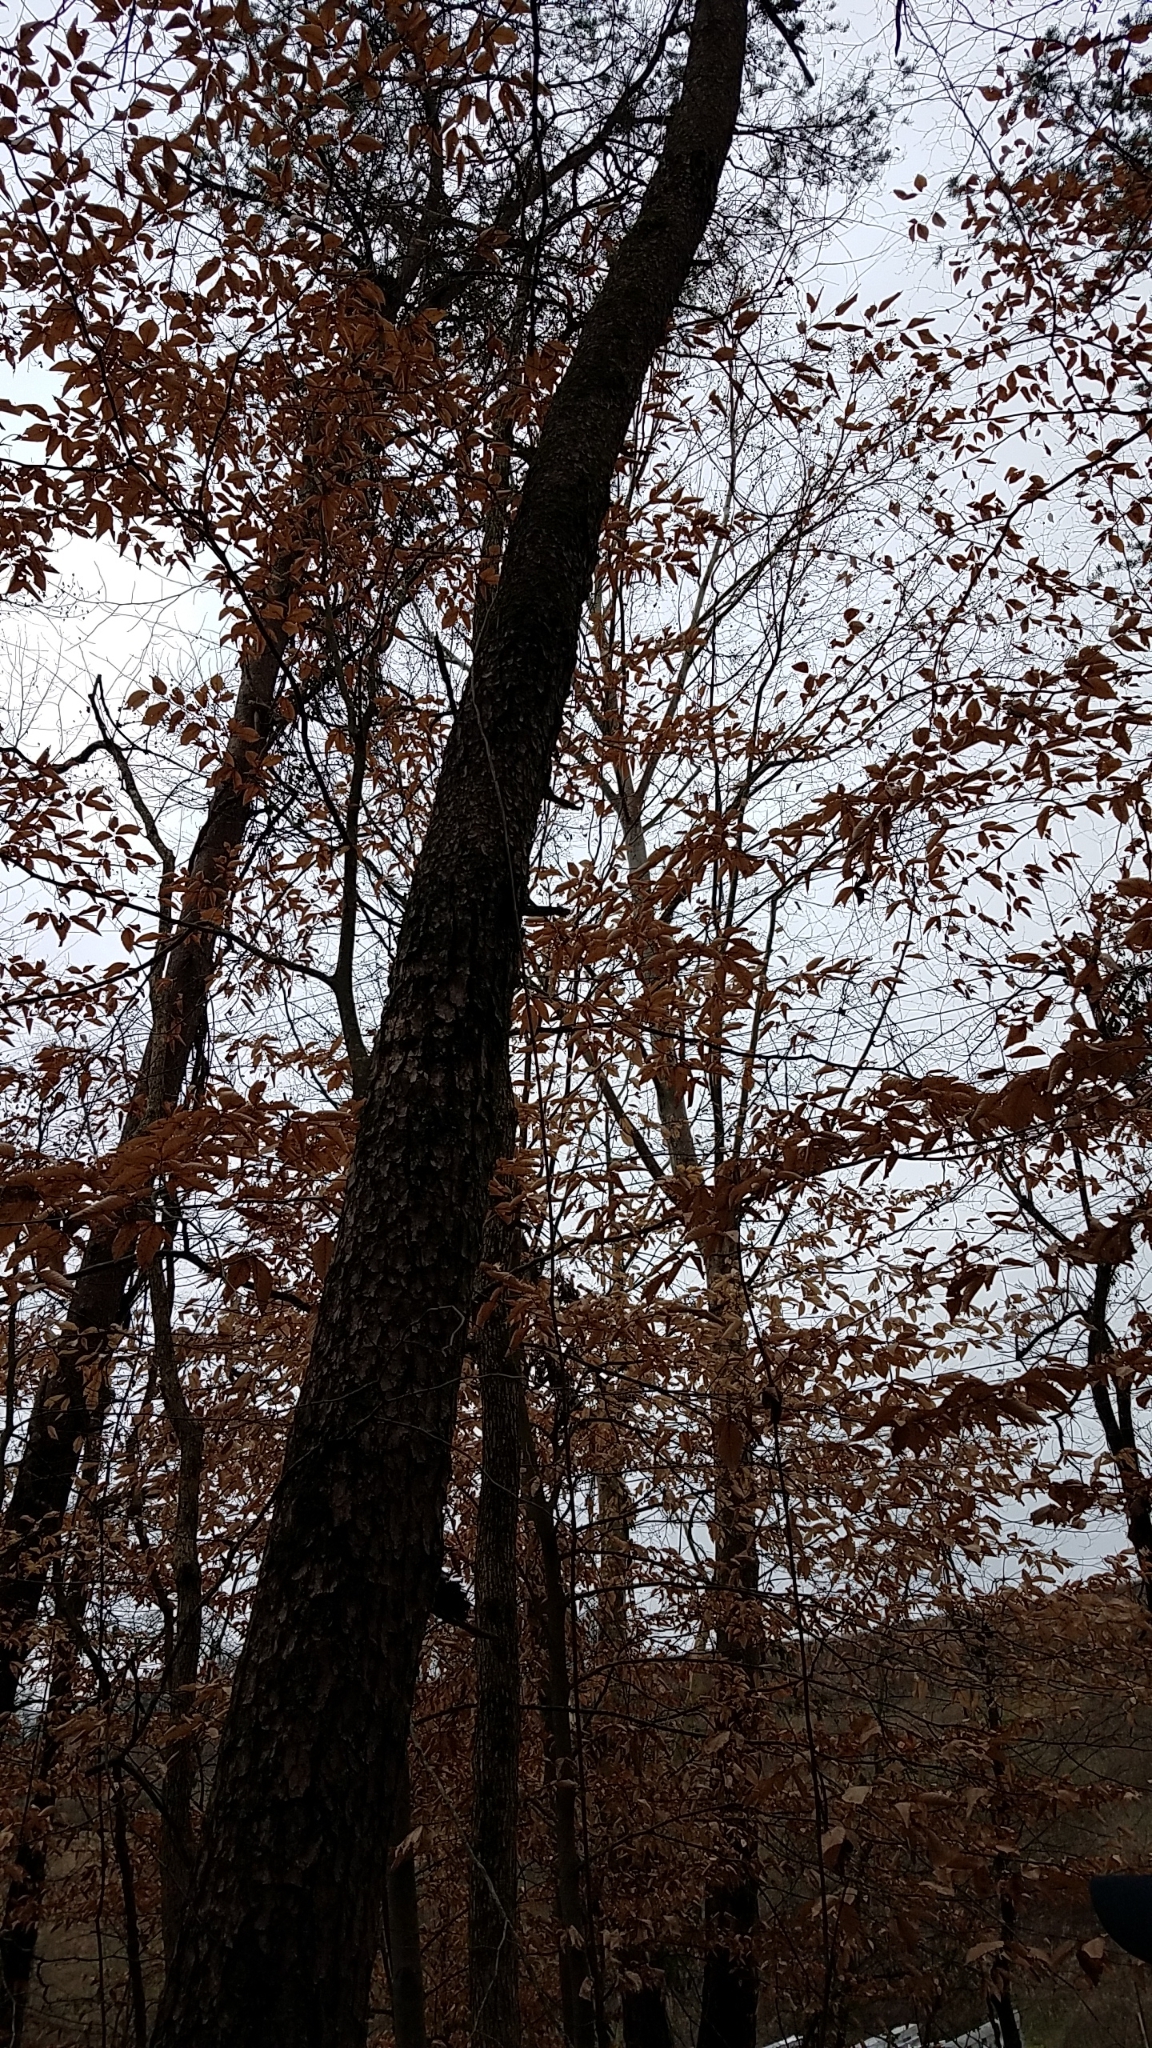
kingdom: Plantae
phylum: Tracheophyta
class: Pinopsida
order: Pinales
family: Pinaceae
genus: Pinus
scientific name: Pinus virginiana
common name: Scrub pine
